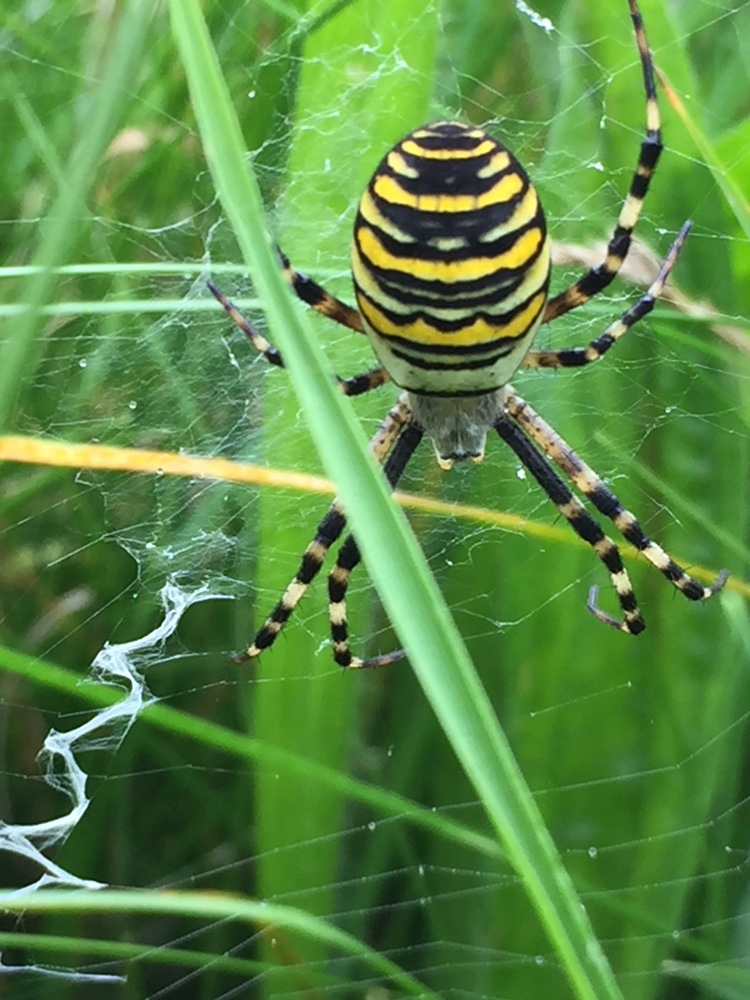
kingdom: Animalia
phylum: Arthropoda
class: Arachnida
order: Araneae
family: Araneidae
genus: Argiope
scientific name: Argiope bruennichi
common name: Wasp spider
